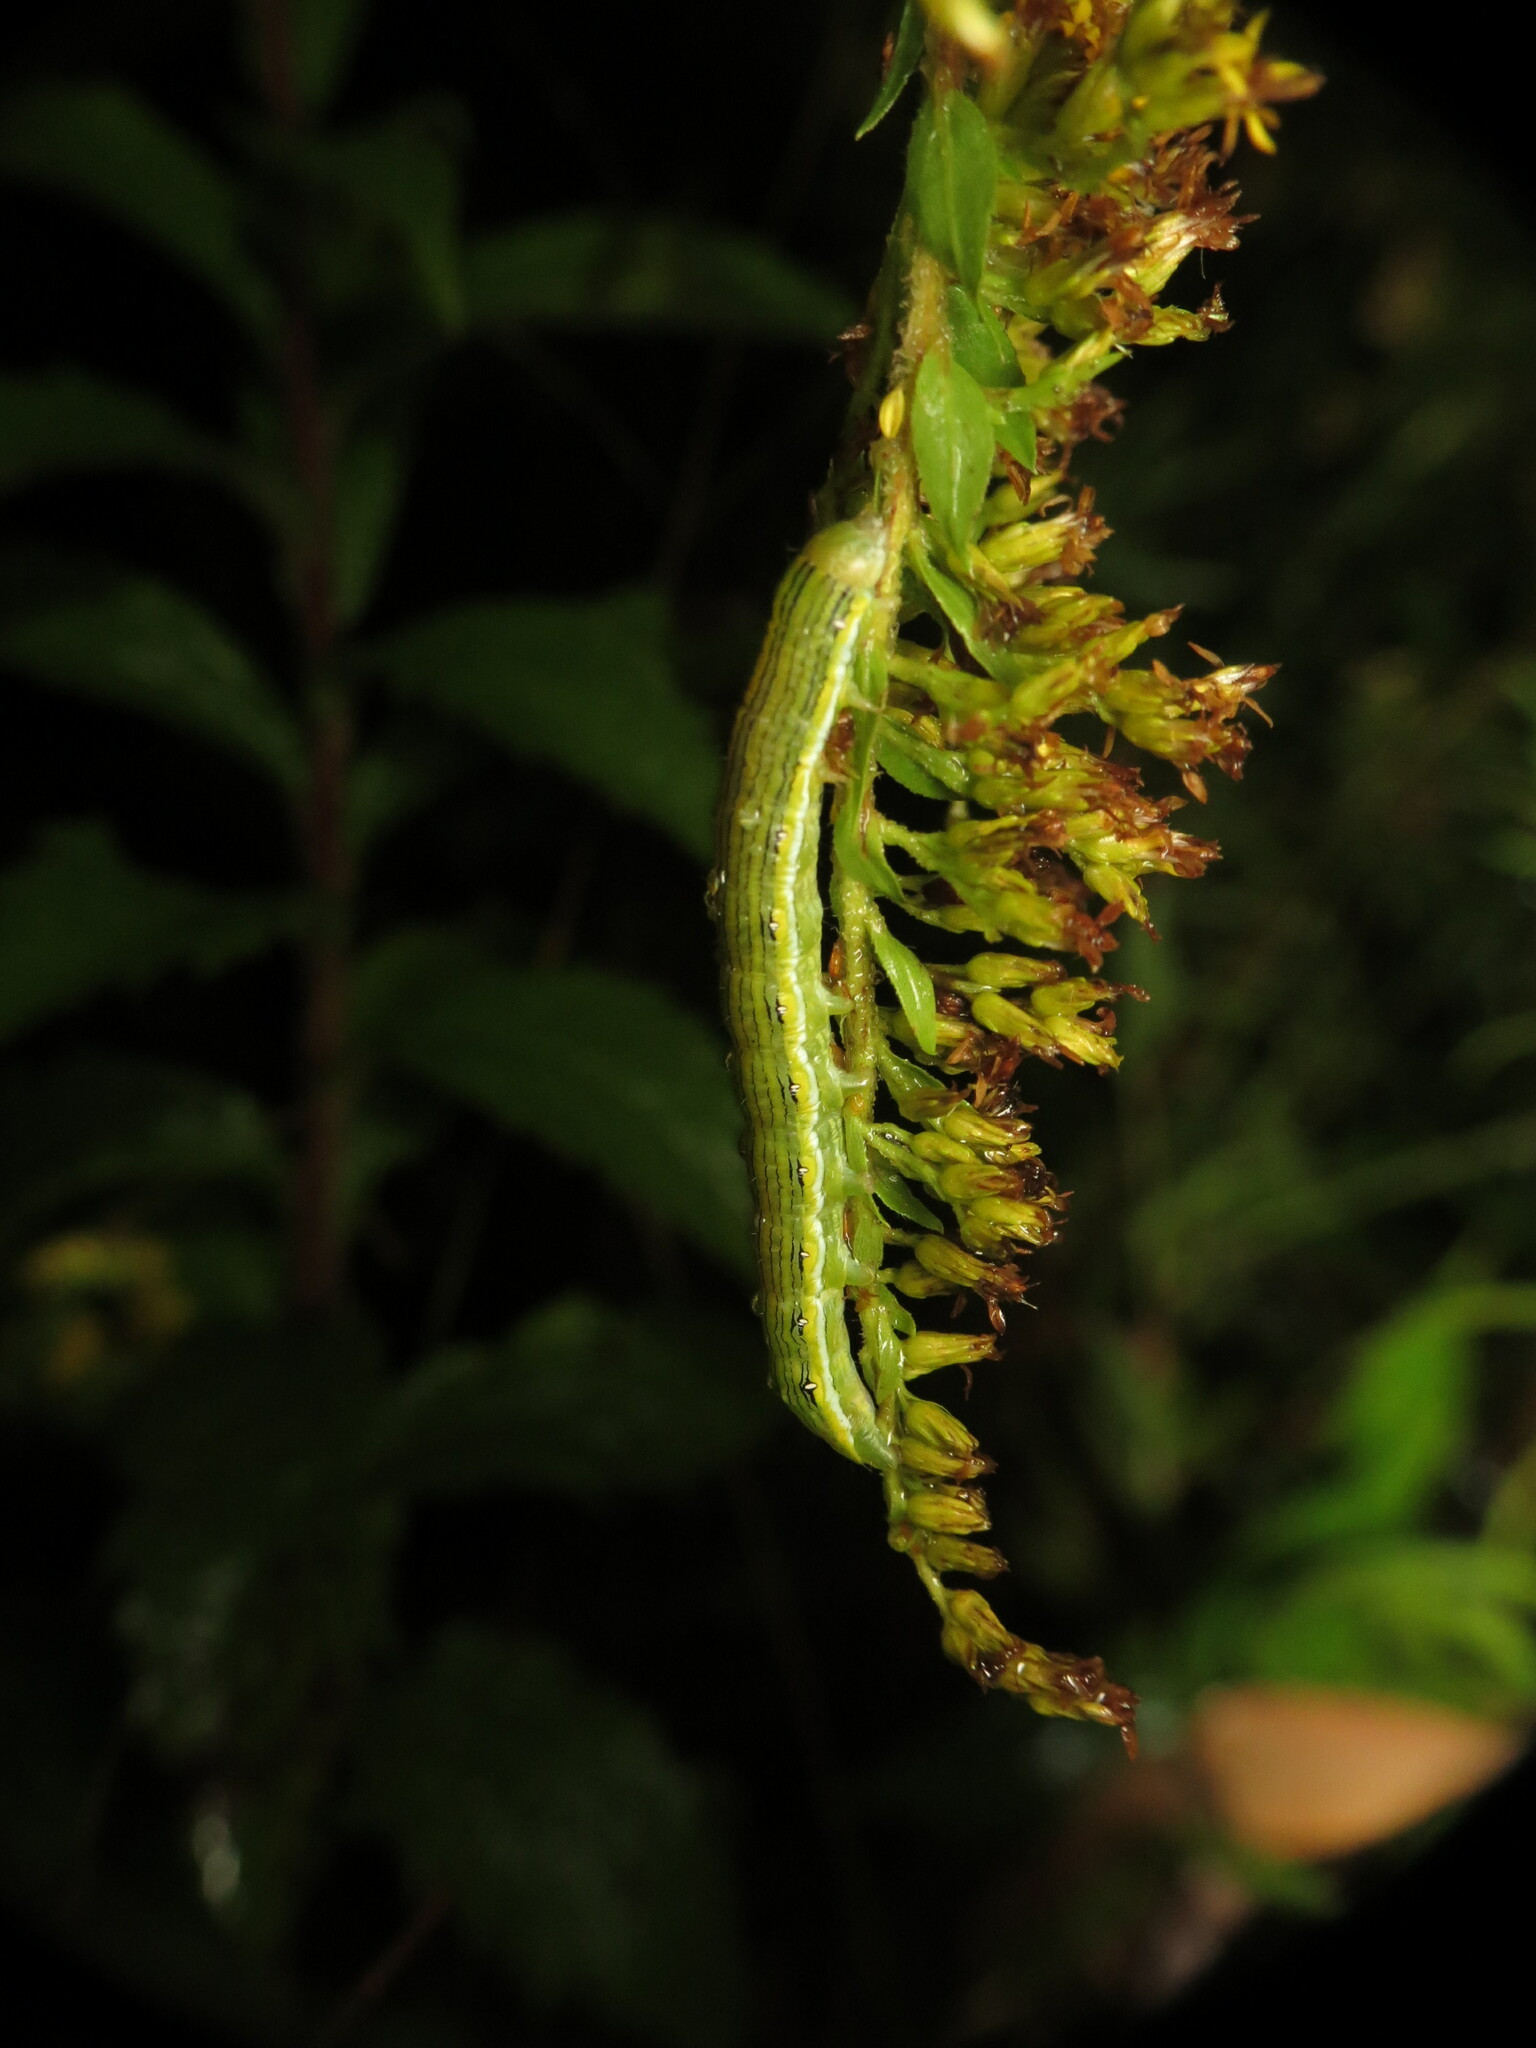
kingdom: Animalia
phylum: Arthropoda
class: Insecta
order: Lepidoptera
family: Noctuidae
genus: Cucullia
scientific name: Cucullia asteroides
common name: Asteroid moth
